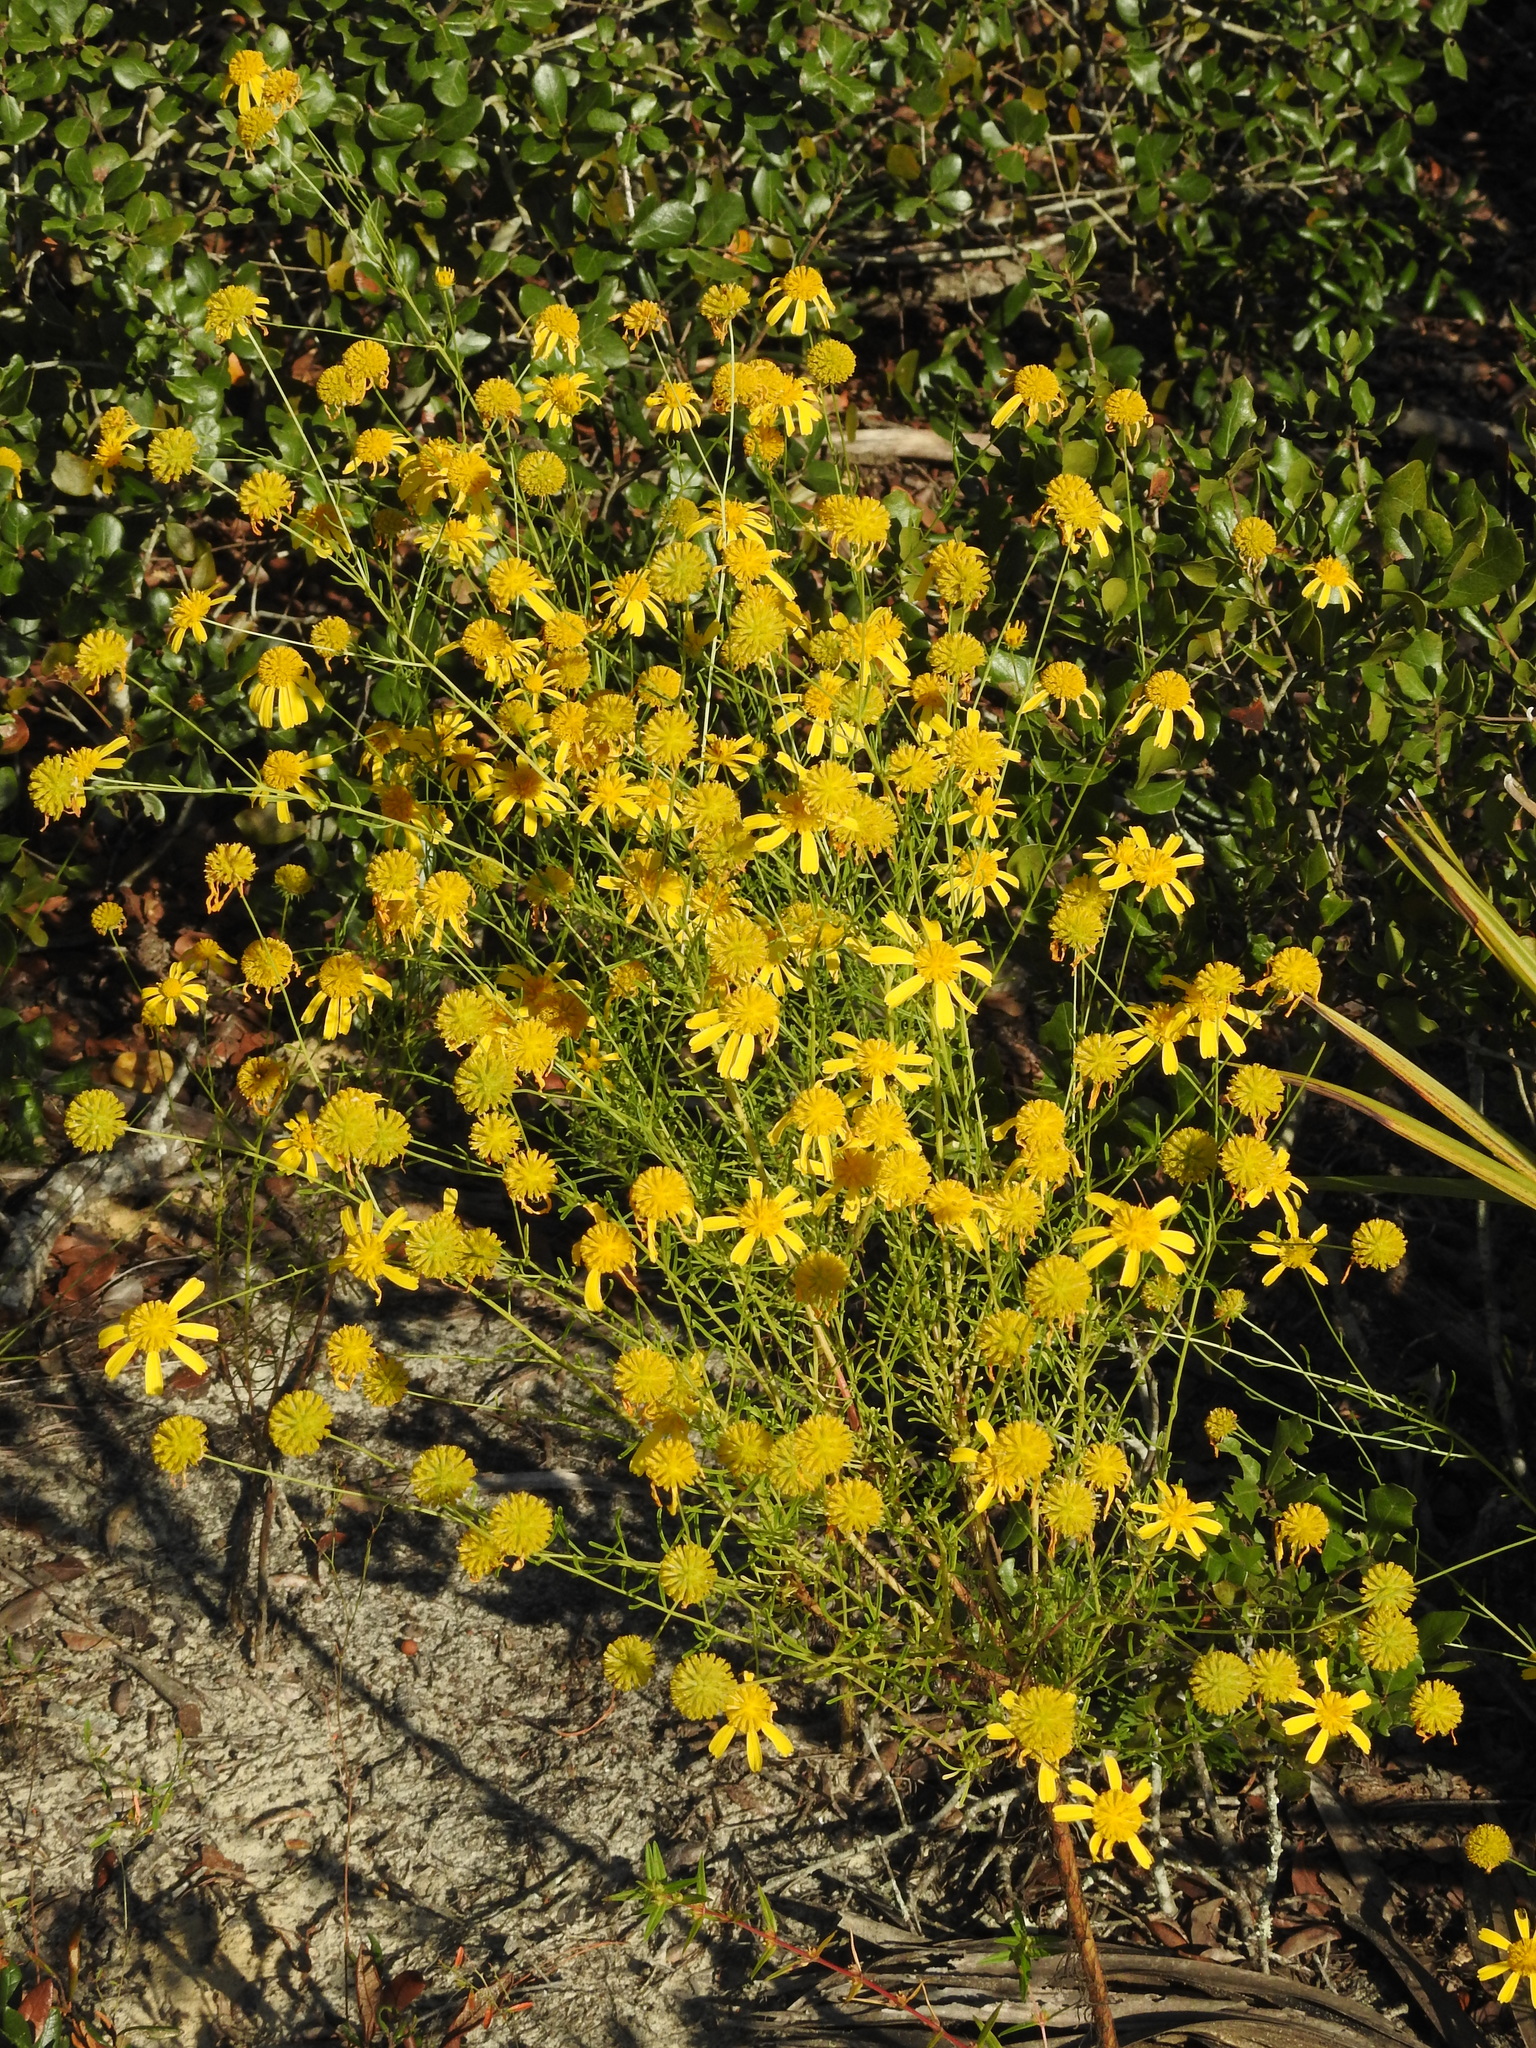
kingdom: Plantae
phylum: Tracheophyta
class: Magnoliopsida
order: Asterales
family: Asteraceae
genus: Balduina
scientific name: Balduina angustifolia
